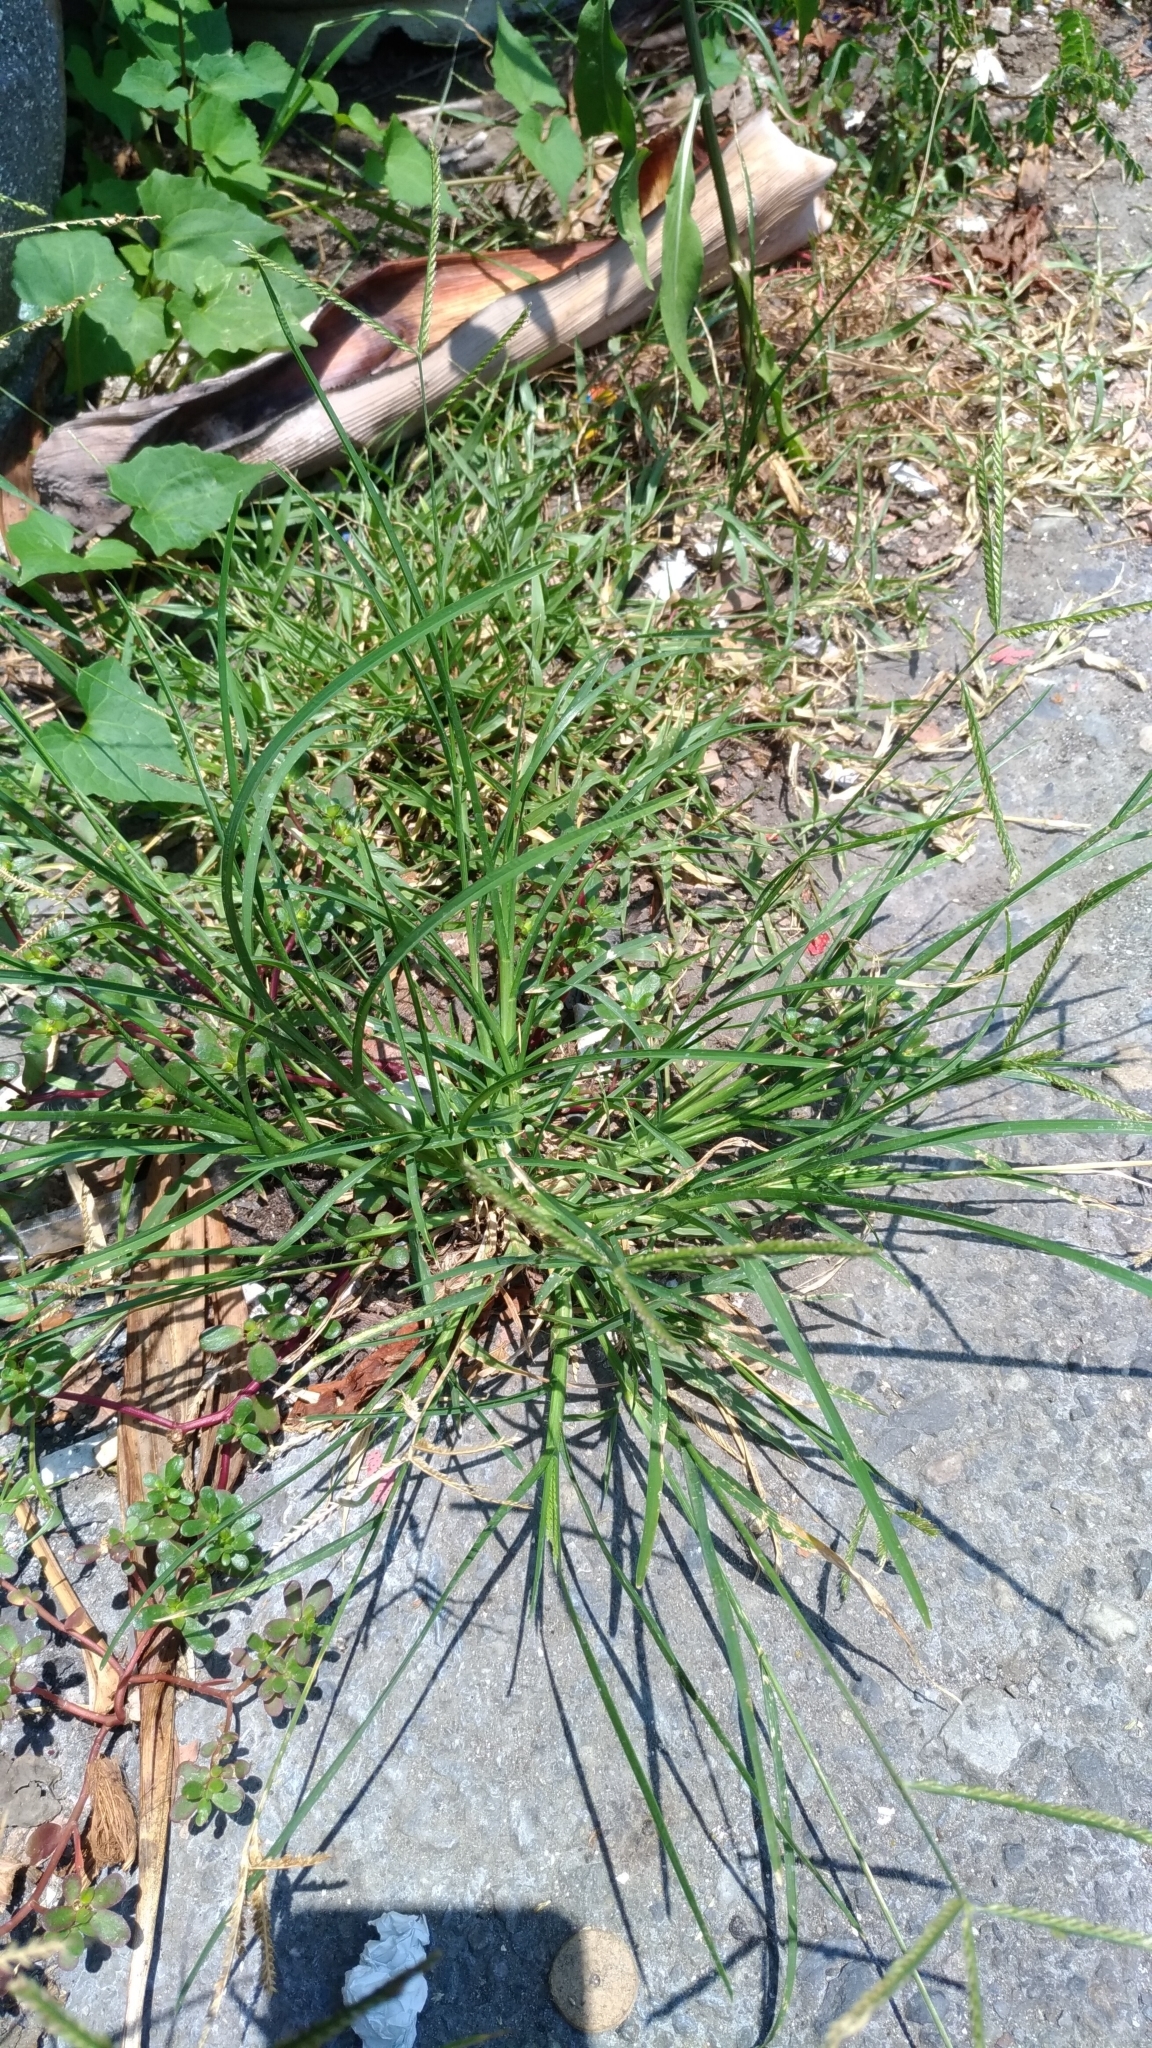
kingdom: Plantae
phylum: Tracheophyta
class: Liliopsida
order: Poales
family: Poaceae
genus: Eleusine
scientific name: Eleusine indica
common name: Yard-grass
